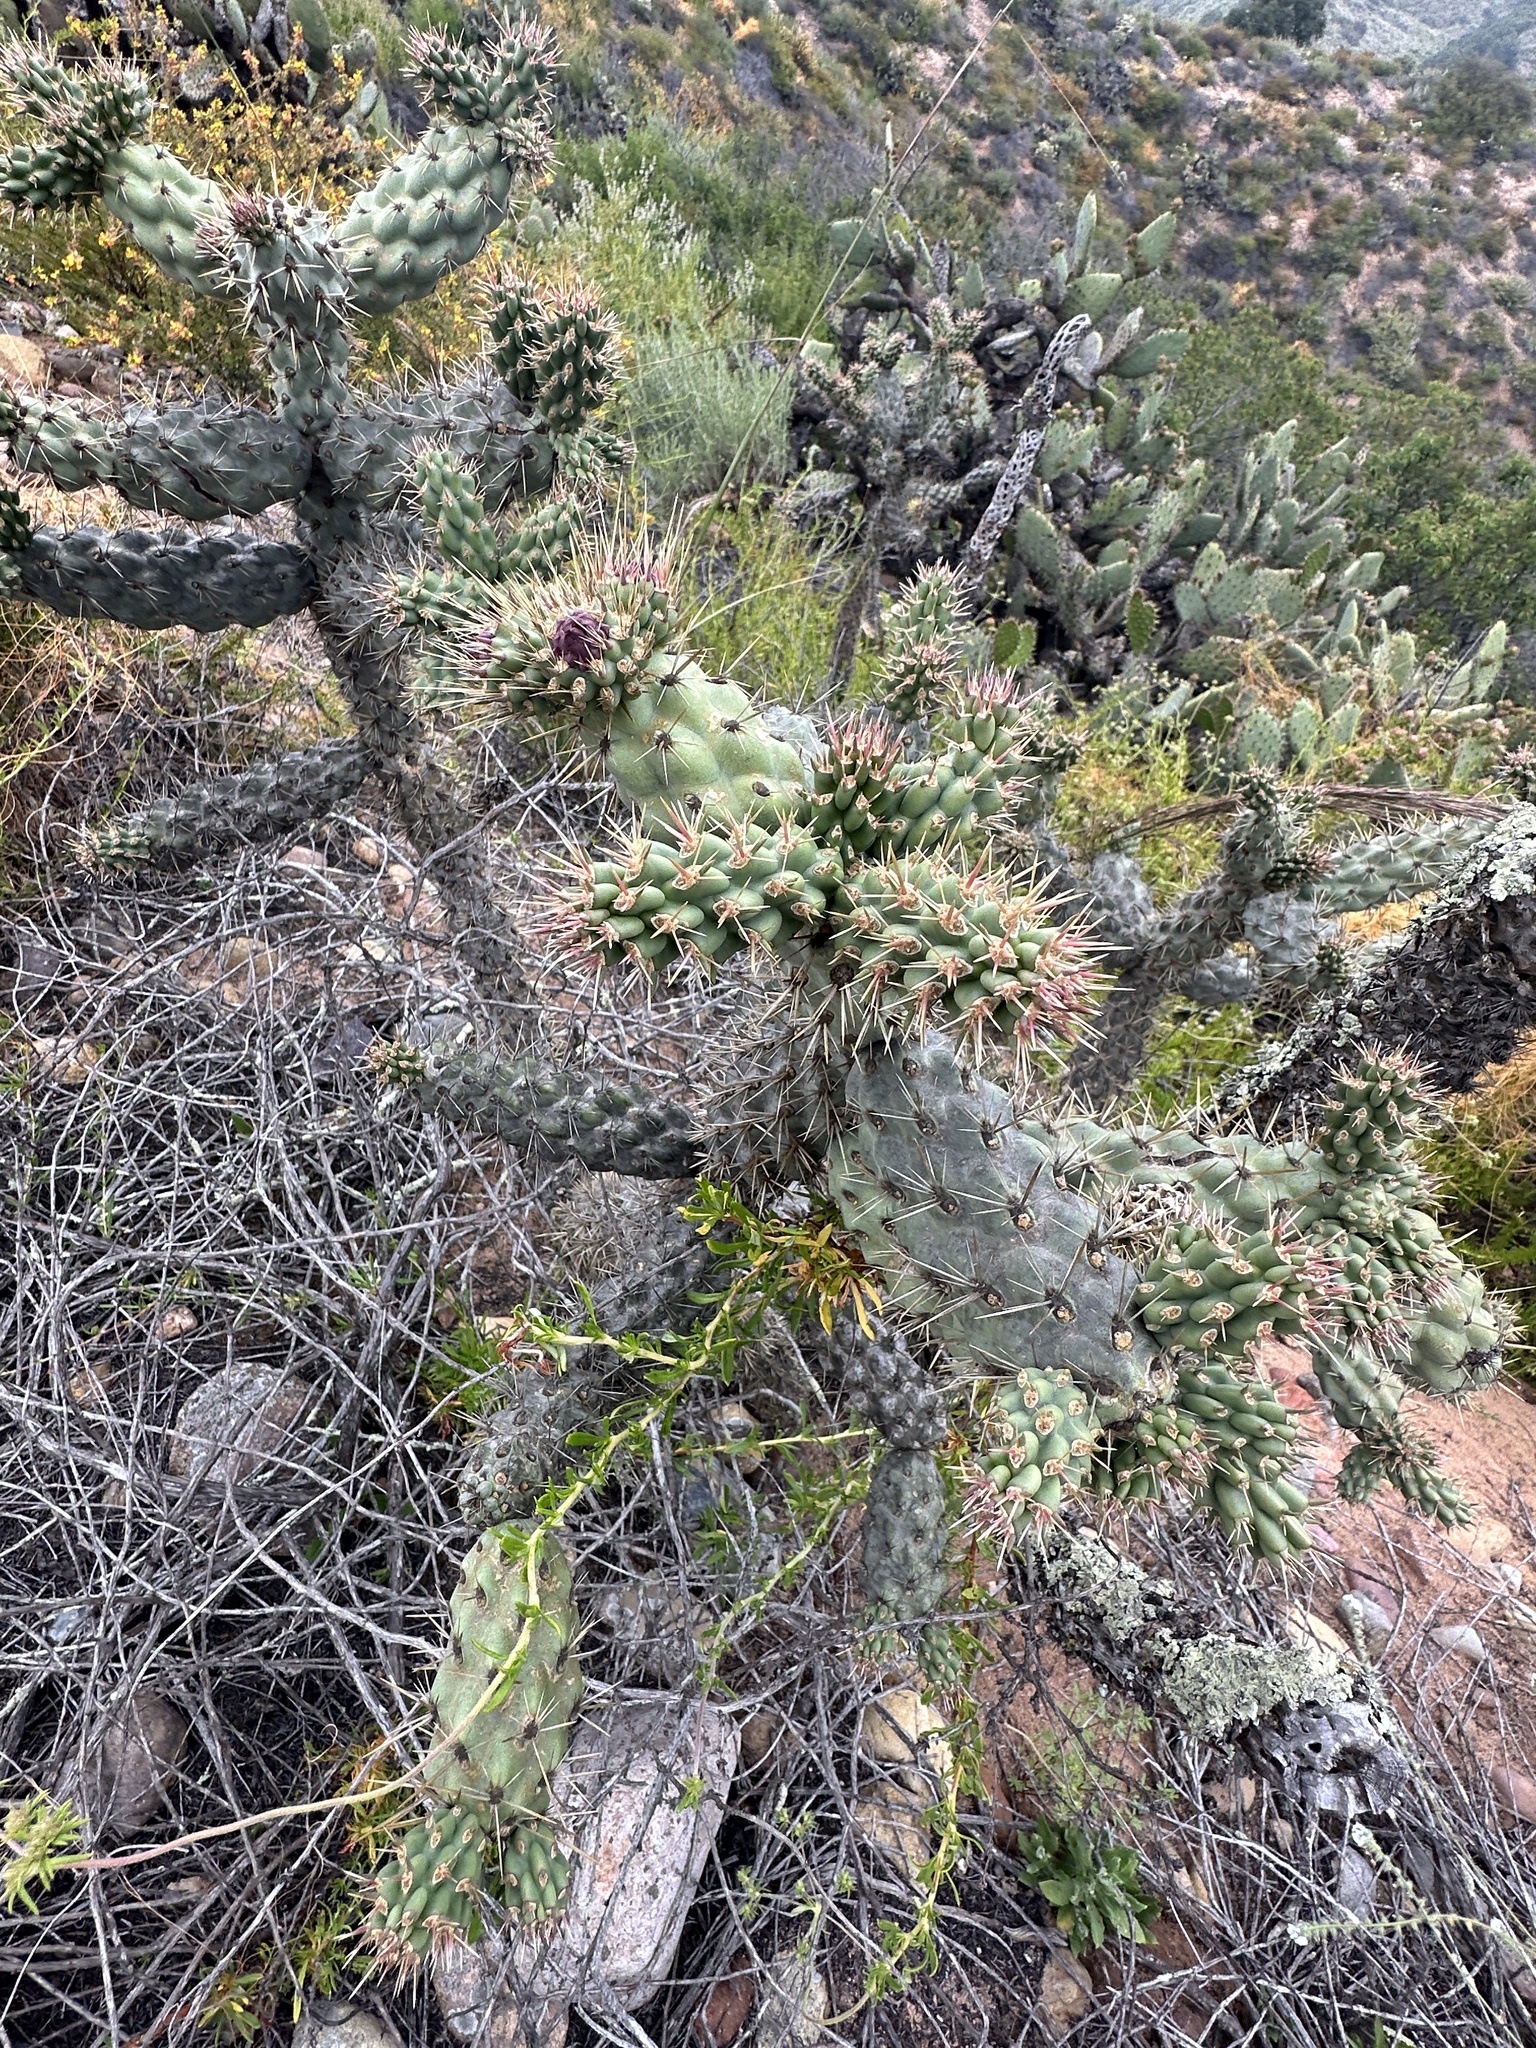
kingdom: Plantae
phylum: Tracheophyta
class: Magnoliopsida
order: Caryophyllales
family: Cactaceae
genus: Cylindropuntia
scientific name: Cylindropuntia prolifera
